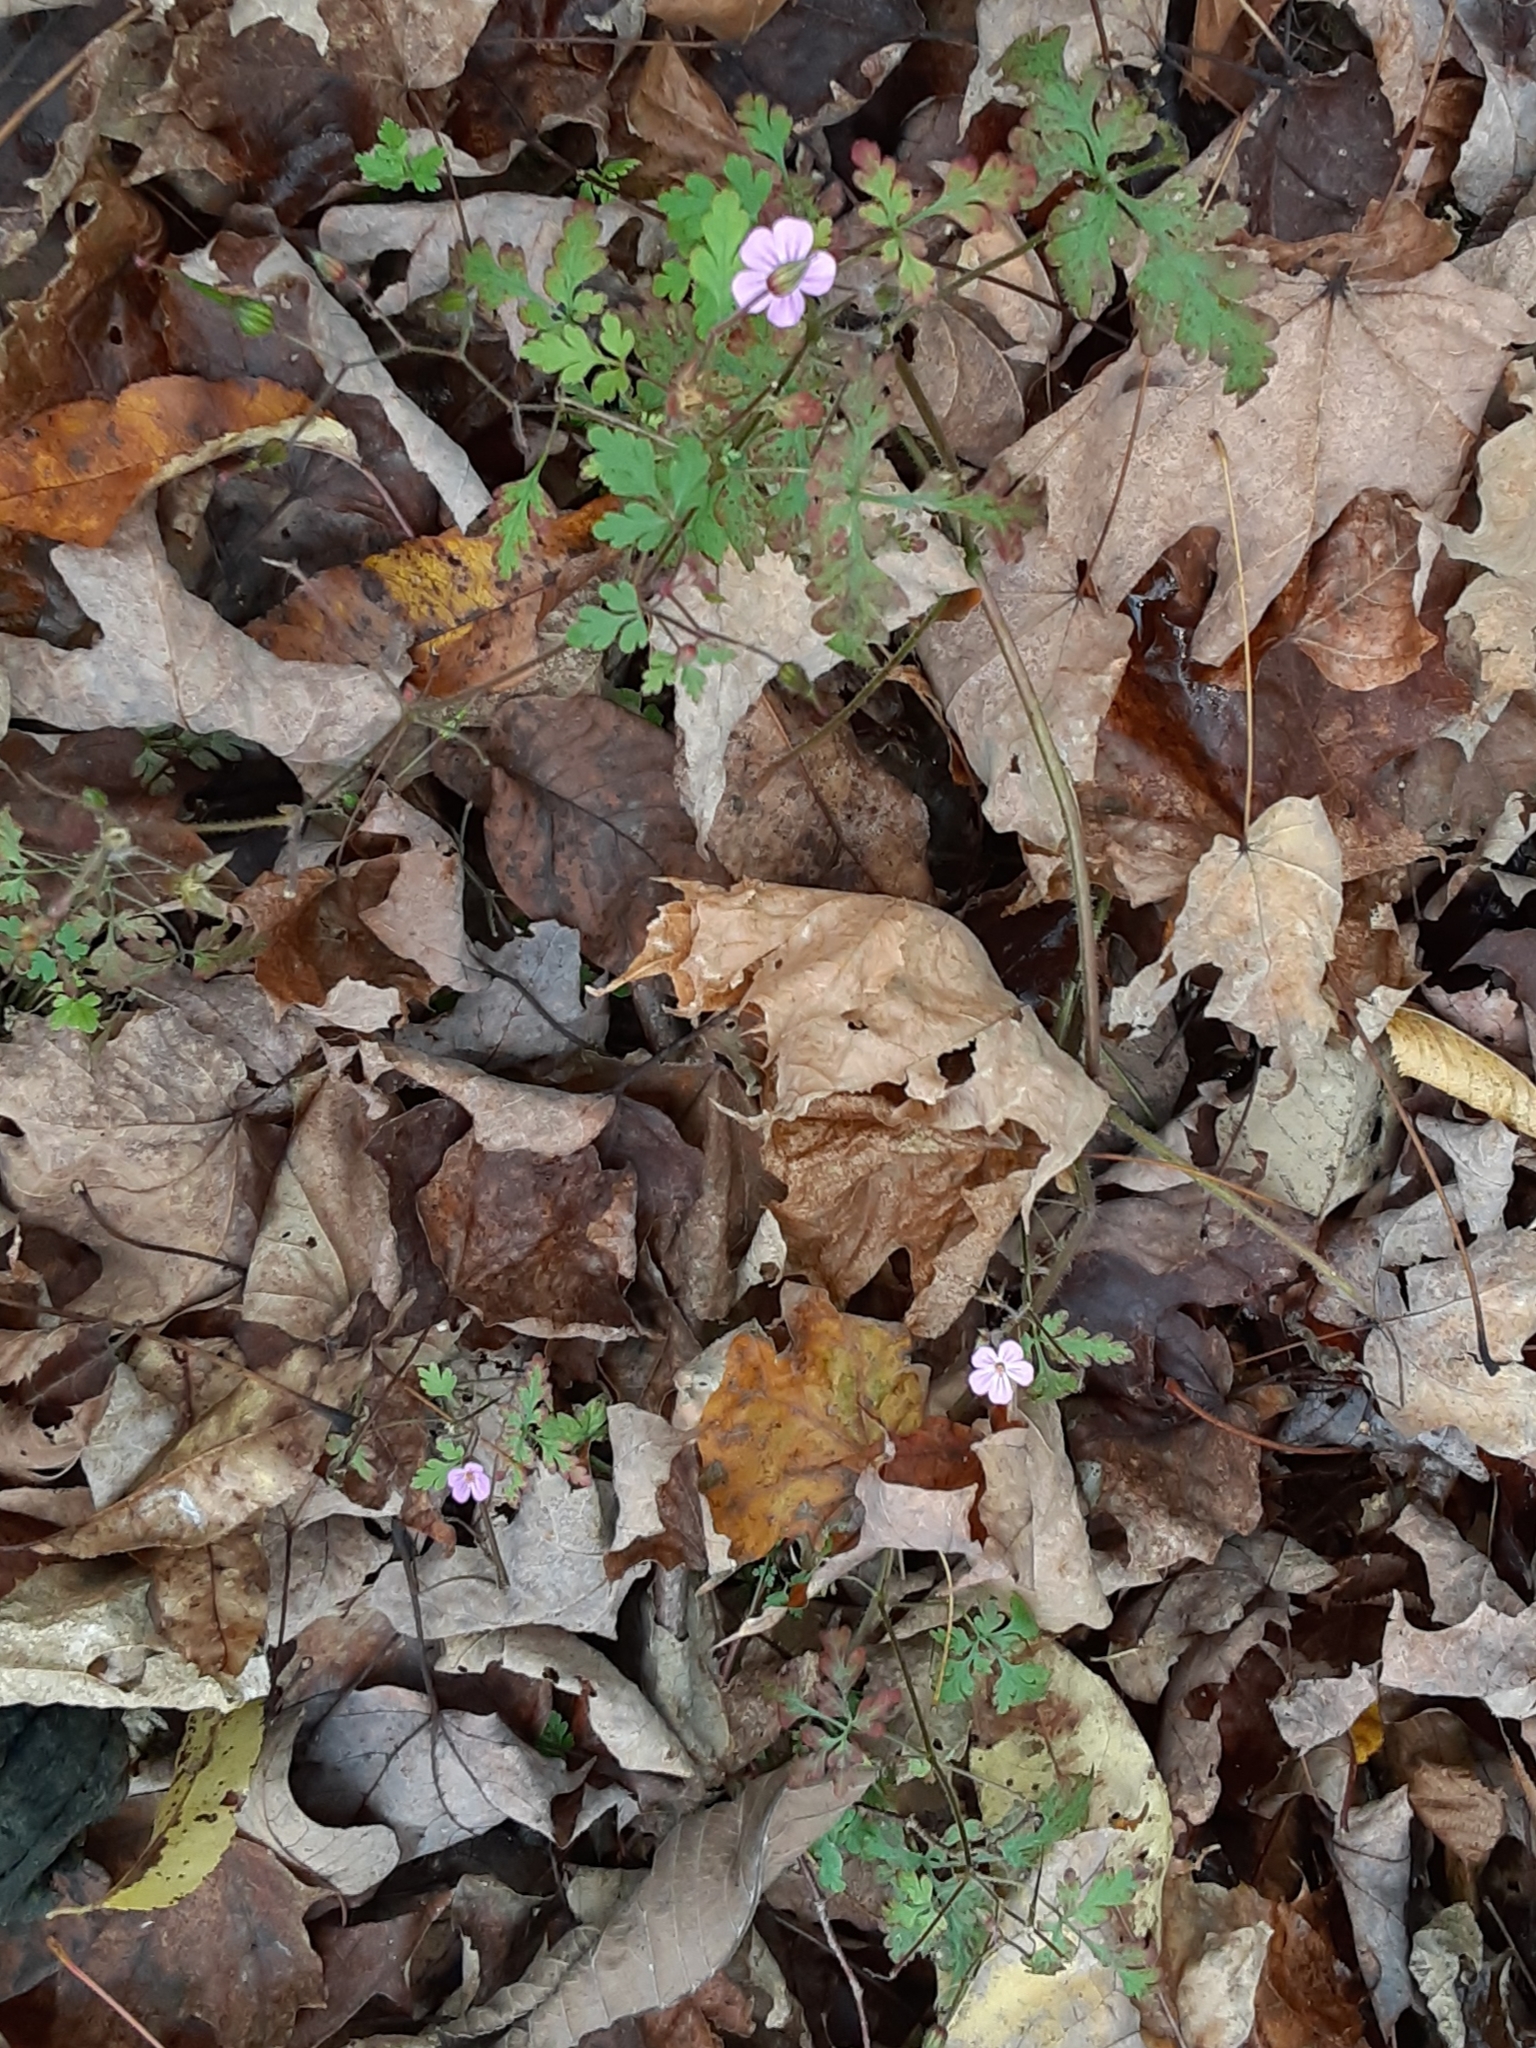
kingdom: Plantae
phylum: Tracheophyta
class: Magnoliopsida
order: Geraniales
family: Geraniaceae
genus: Geranium
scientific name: Geranium robertianum
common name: Herb-robert
